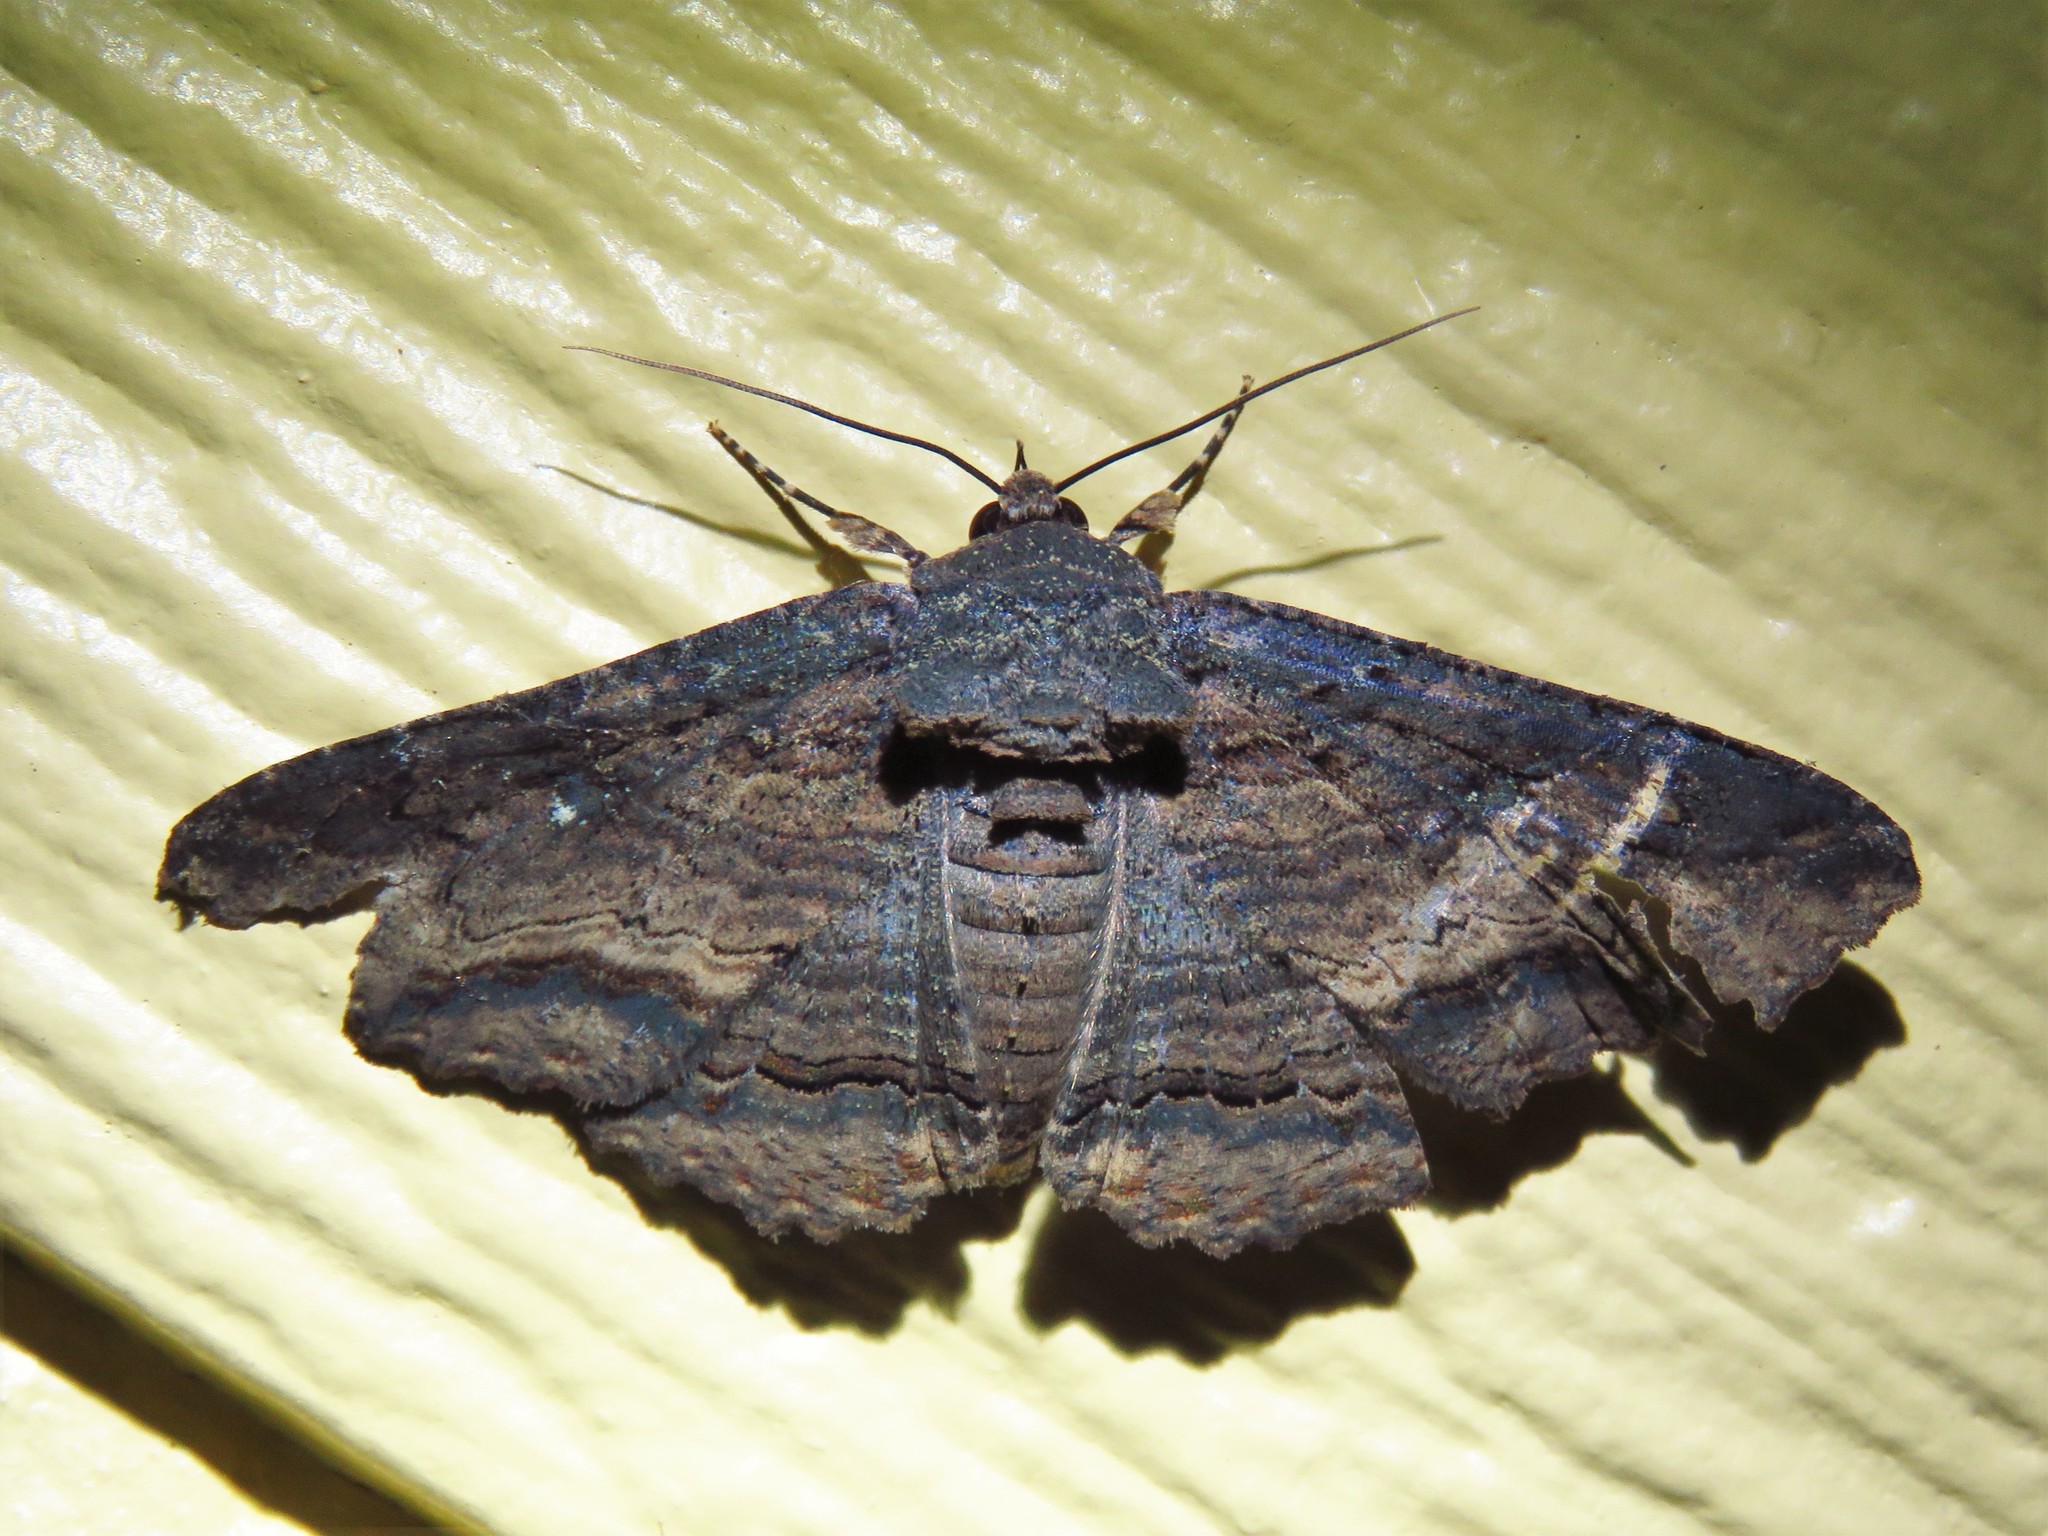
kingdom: Animalia
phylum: Arthropoda
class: Insecta
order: Lepidoptera
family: Erebidae
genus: Zale
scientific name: Zale lunata
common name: Lunate zale moth
